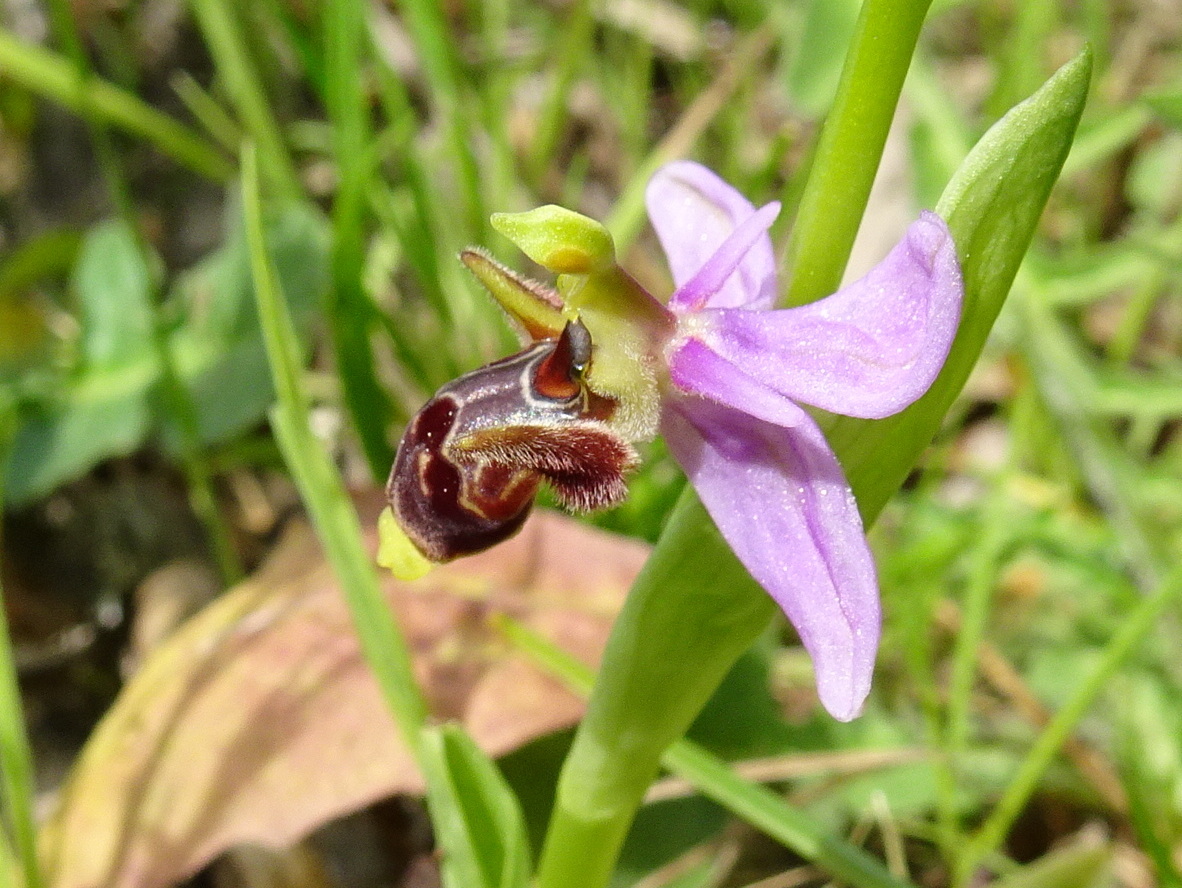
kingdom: Plantae
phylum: Tracheophyta
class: Liliopsida
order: Asparagales
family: Orchidaceae
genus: Ophrys
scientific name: Ophrys scolopax
